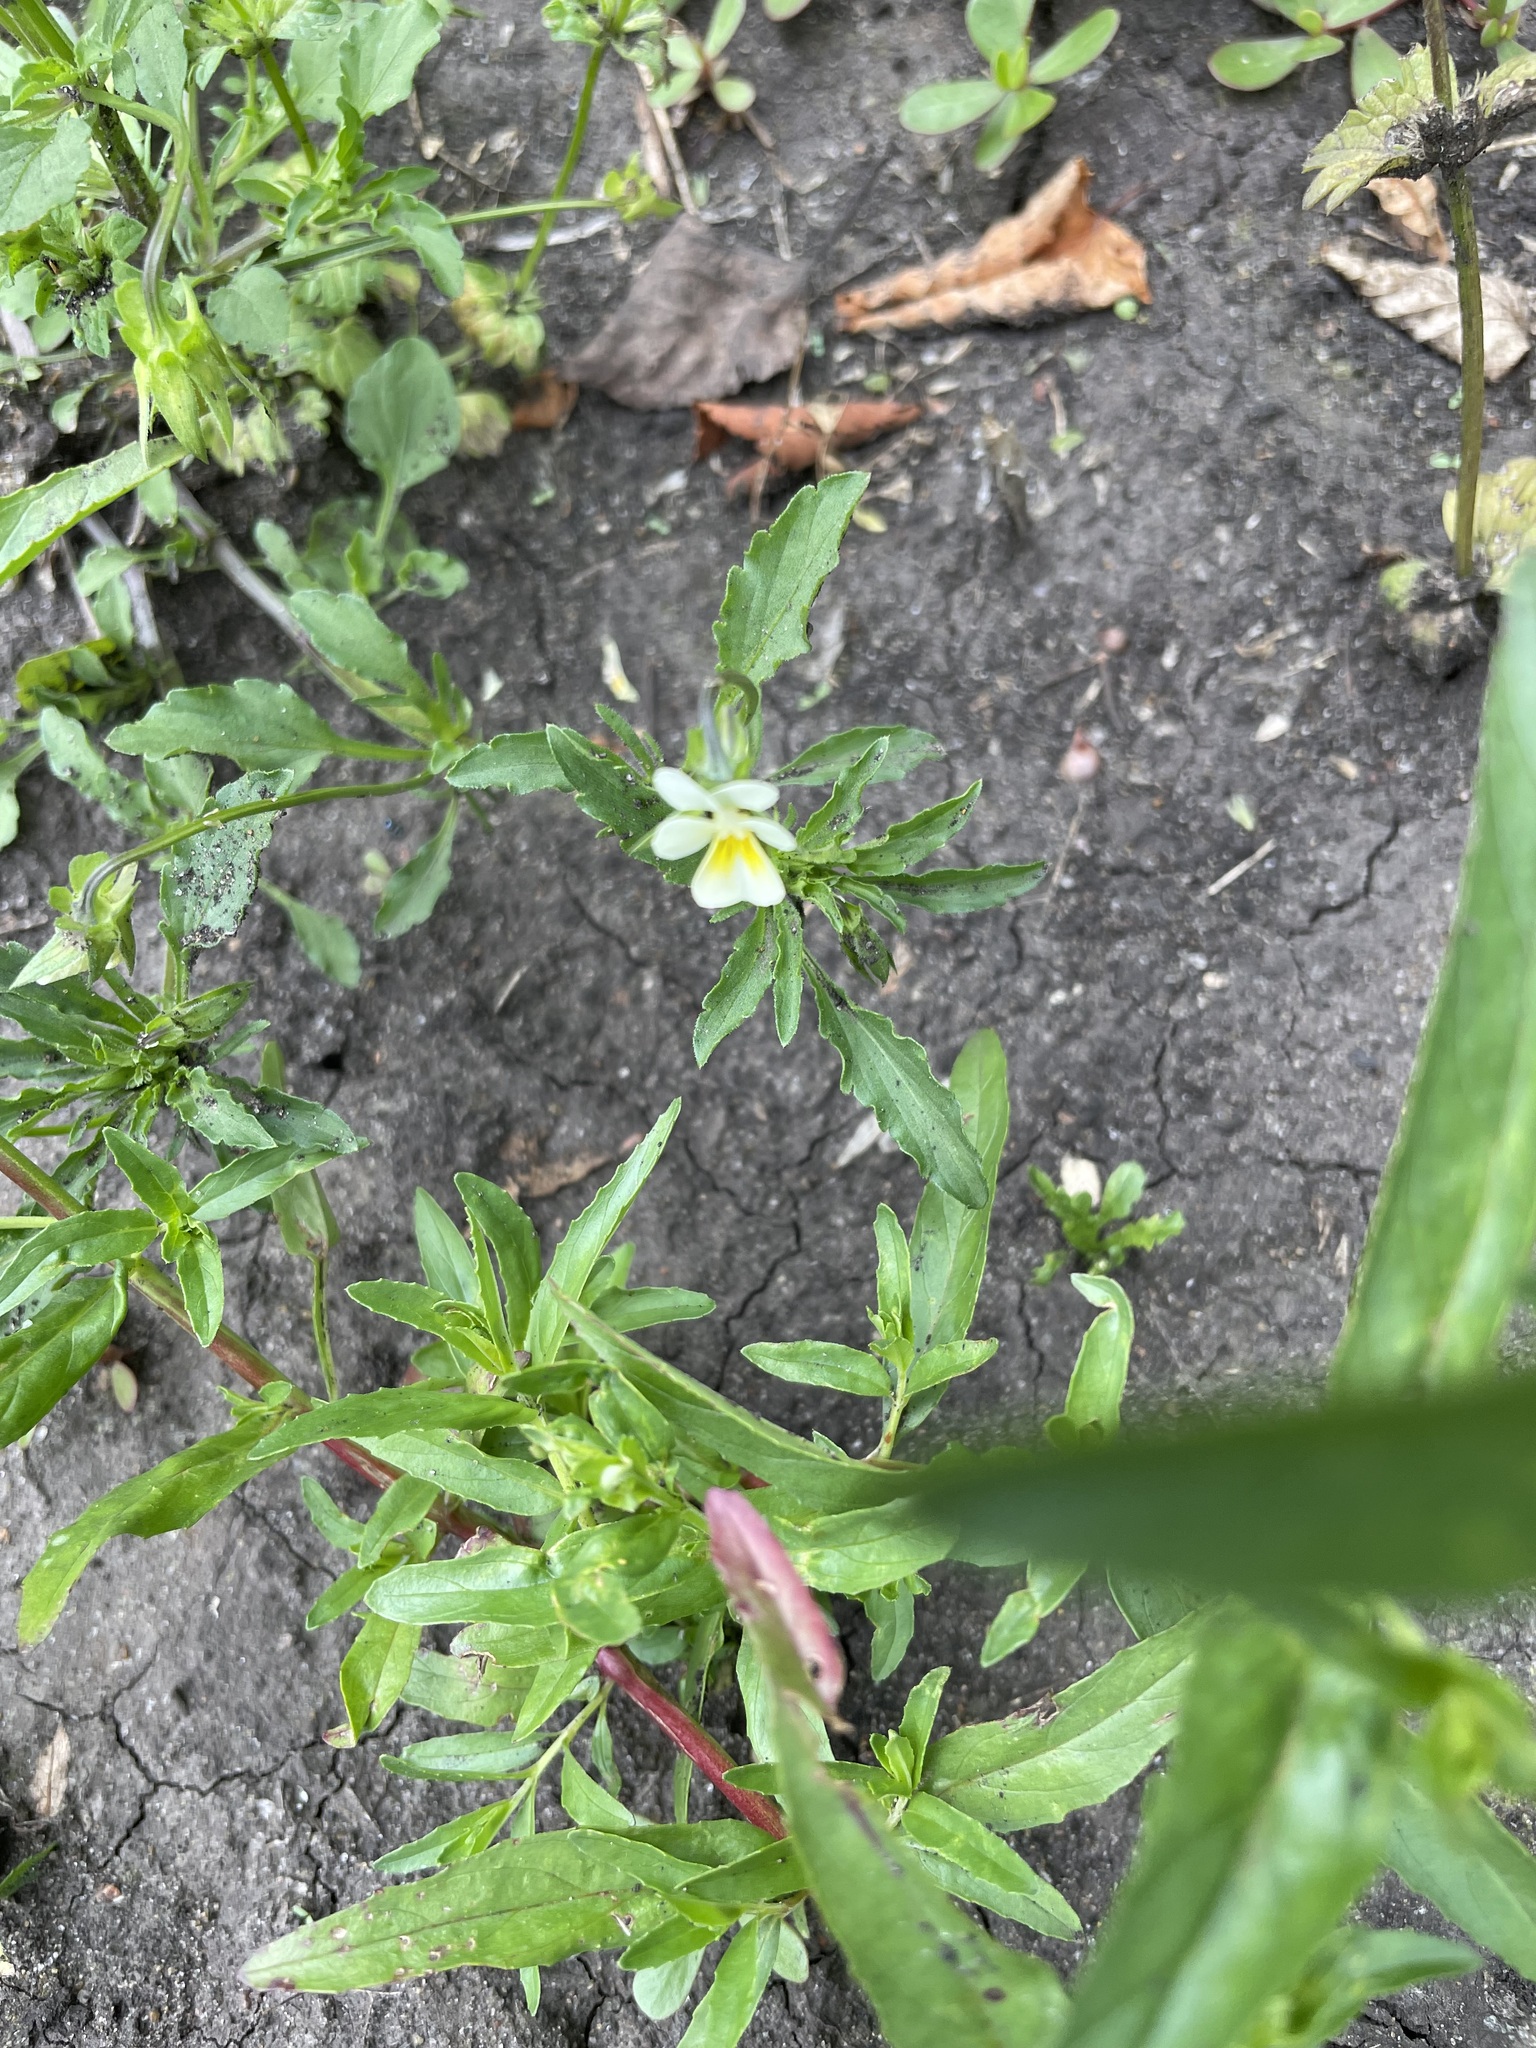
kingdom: Plantae
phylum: Tracheophyta
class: Magnoliopsida
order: Malpighiales
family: Violaceae
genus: Viola
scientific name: Viola arvensis
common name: Field pansy
